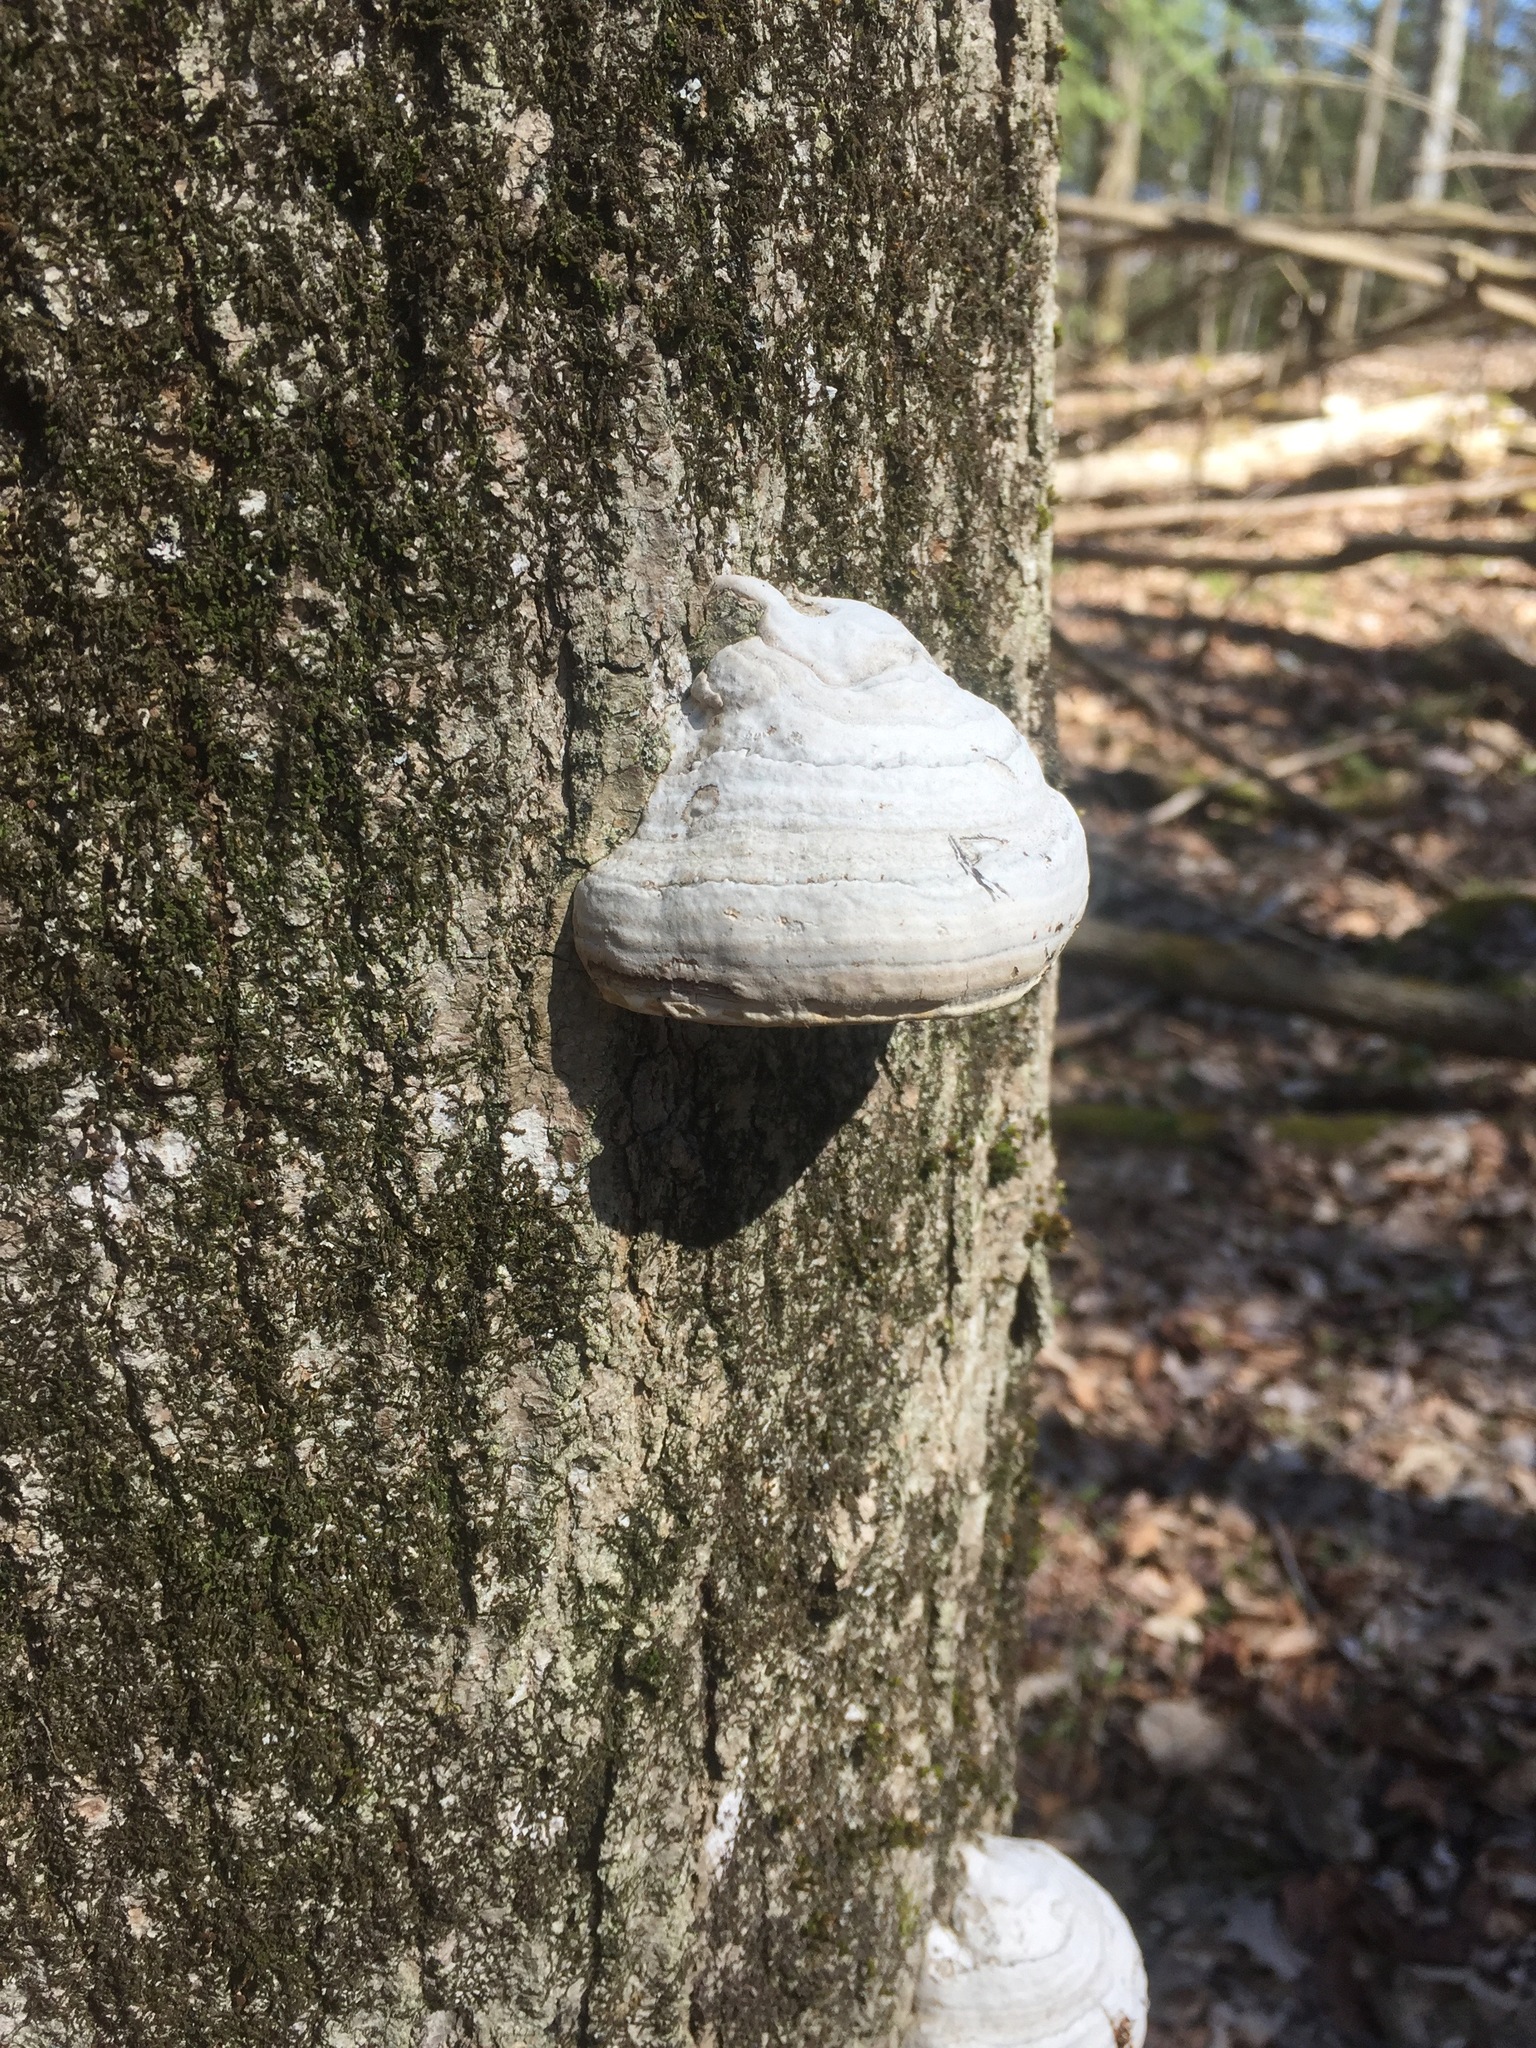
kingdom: Fungi
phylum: Basidiomycota
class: Agaricomycetes
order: Polyporales
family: Polyporaceae
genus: Fomes
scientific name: Fomes fomentarius
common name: Hoof fungus
